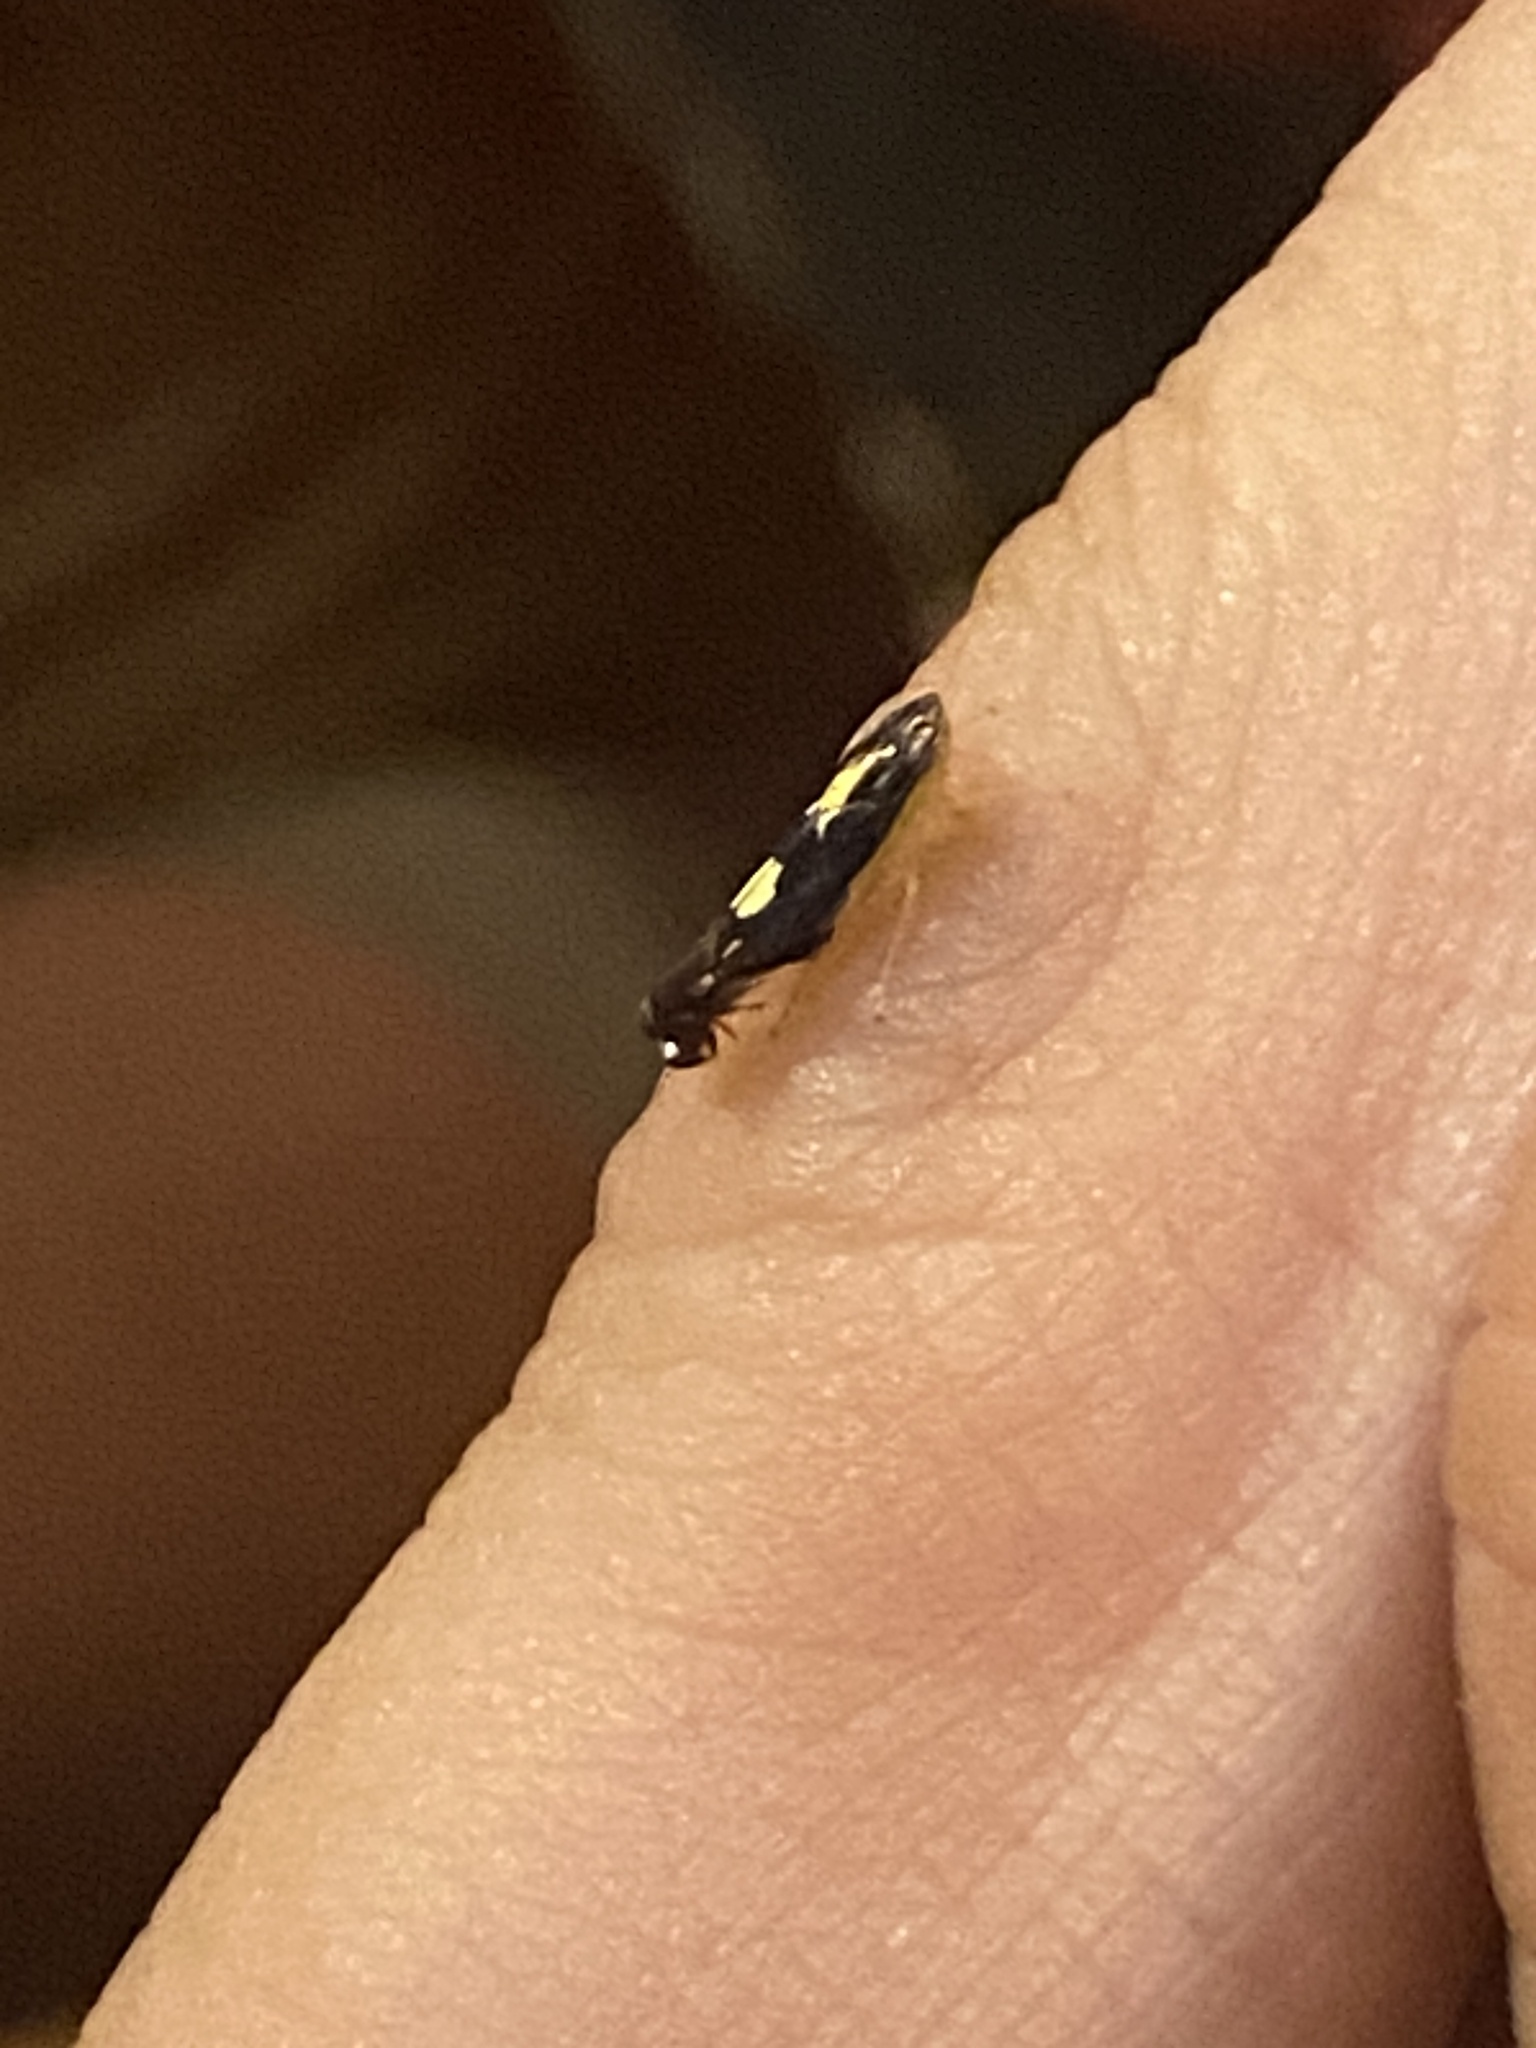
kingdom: Animalia
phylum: Arthropoda
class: Insecta
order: Hemiptera
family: Cicadellidae
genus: Diedrocephala
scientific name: Diedrocephala variegata
